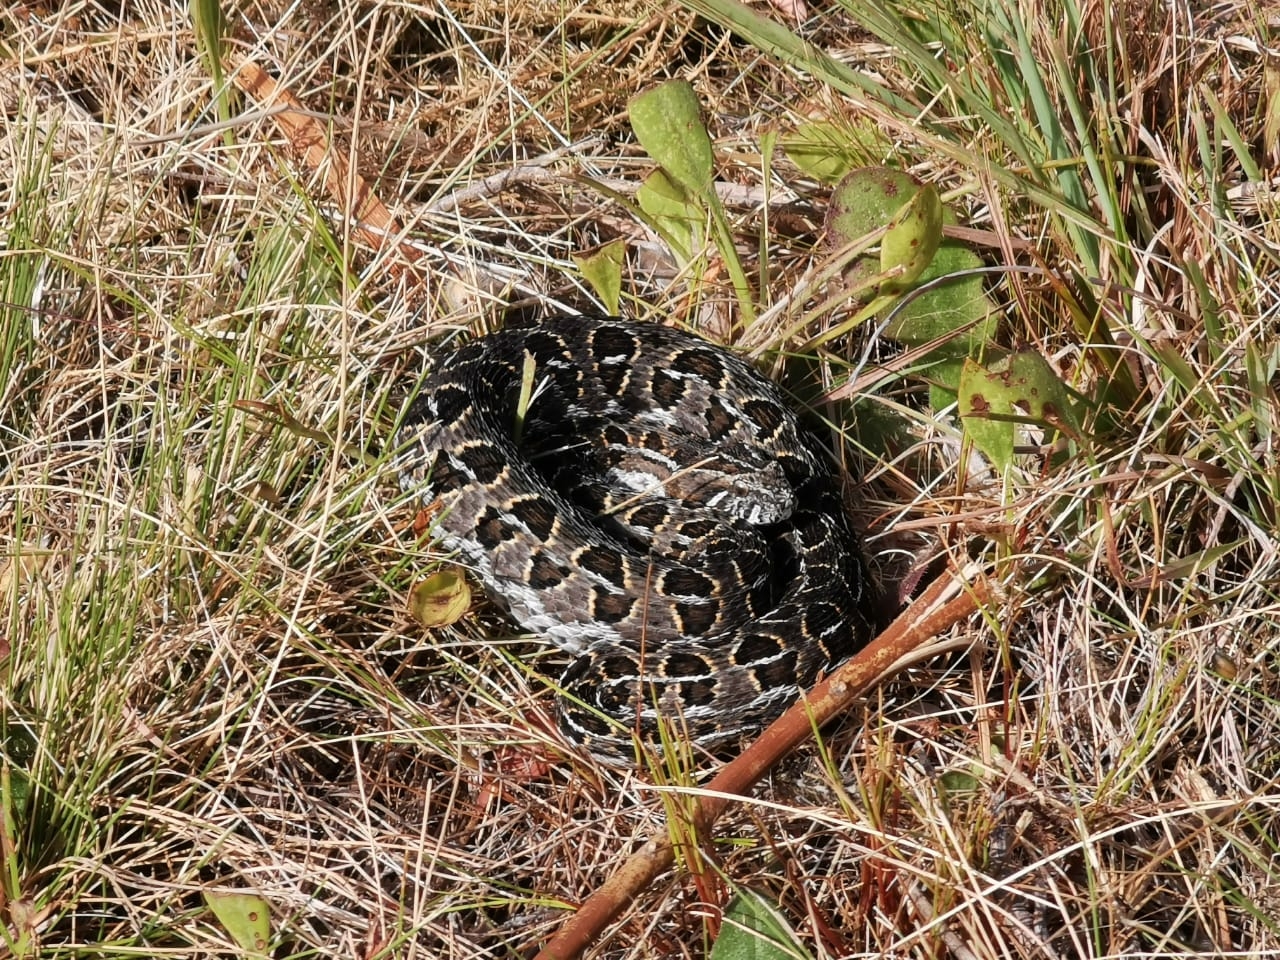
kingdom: Animalia
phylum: Chordata
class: Squamata
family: Viperidae
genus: Bitis
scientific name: Bitis atropos
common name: Mountain adder
